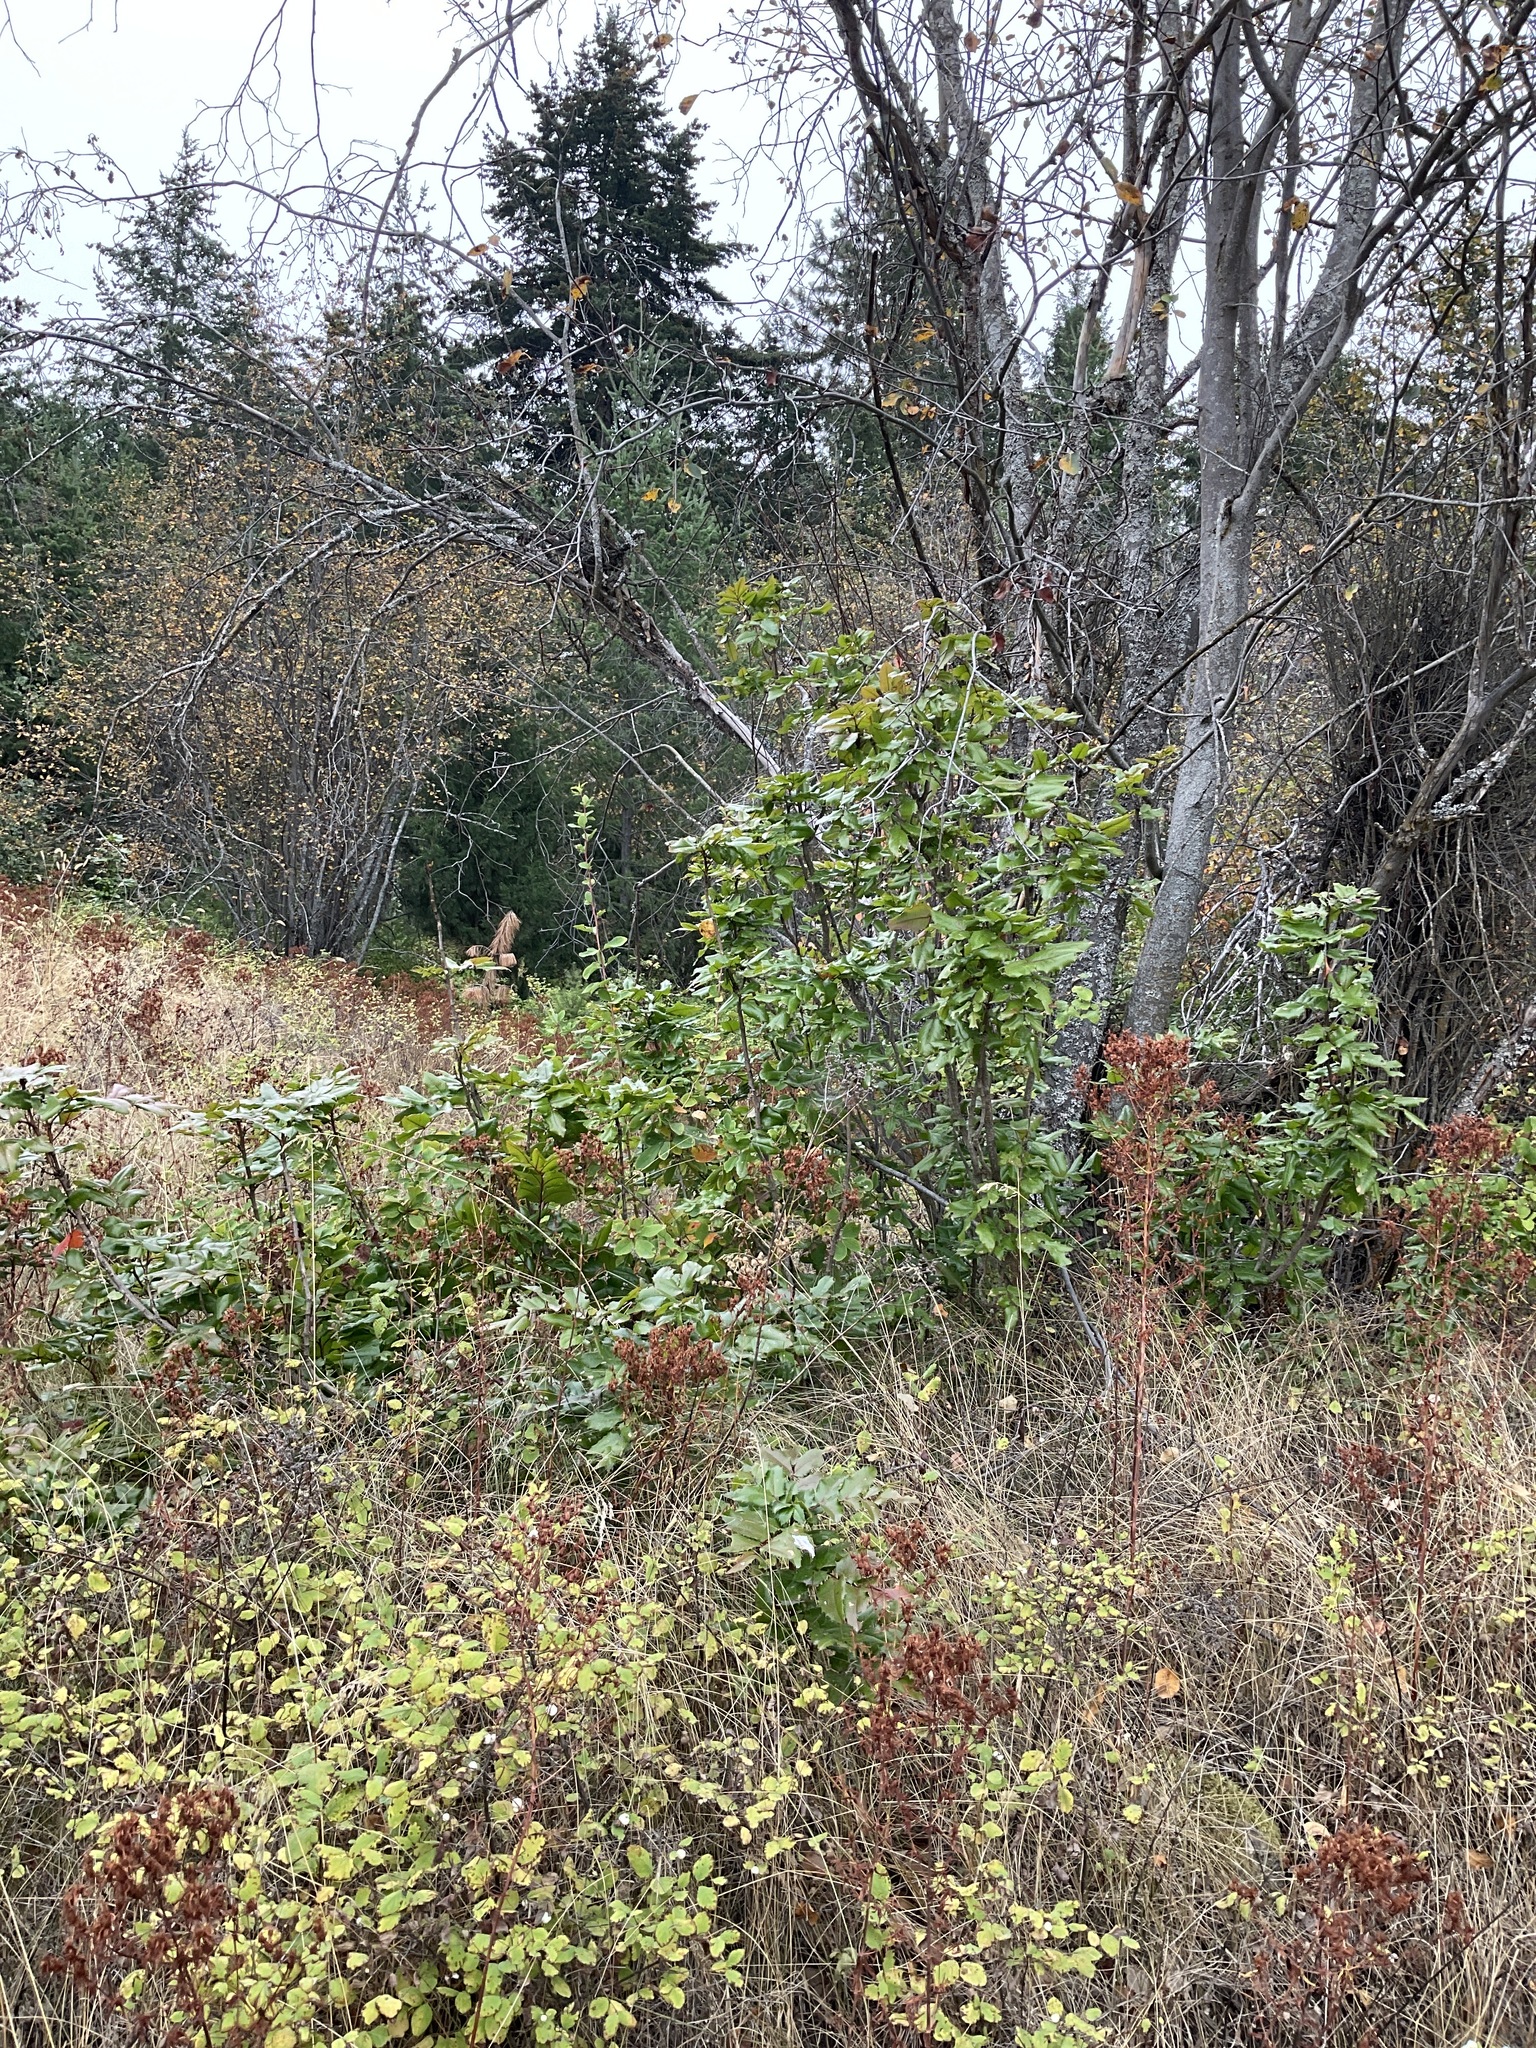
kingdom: Plantae
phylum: Tracheophyta
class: Magnoliopsida
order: Ranunculales
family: Berberidaceae
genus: Mahonia
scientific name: Mahonia aquifolium
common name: Oregon-grape
